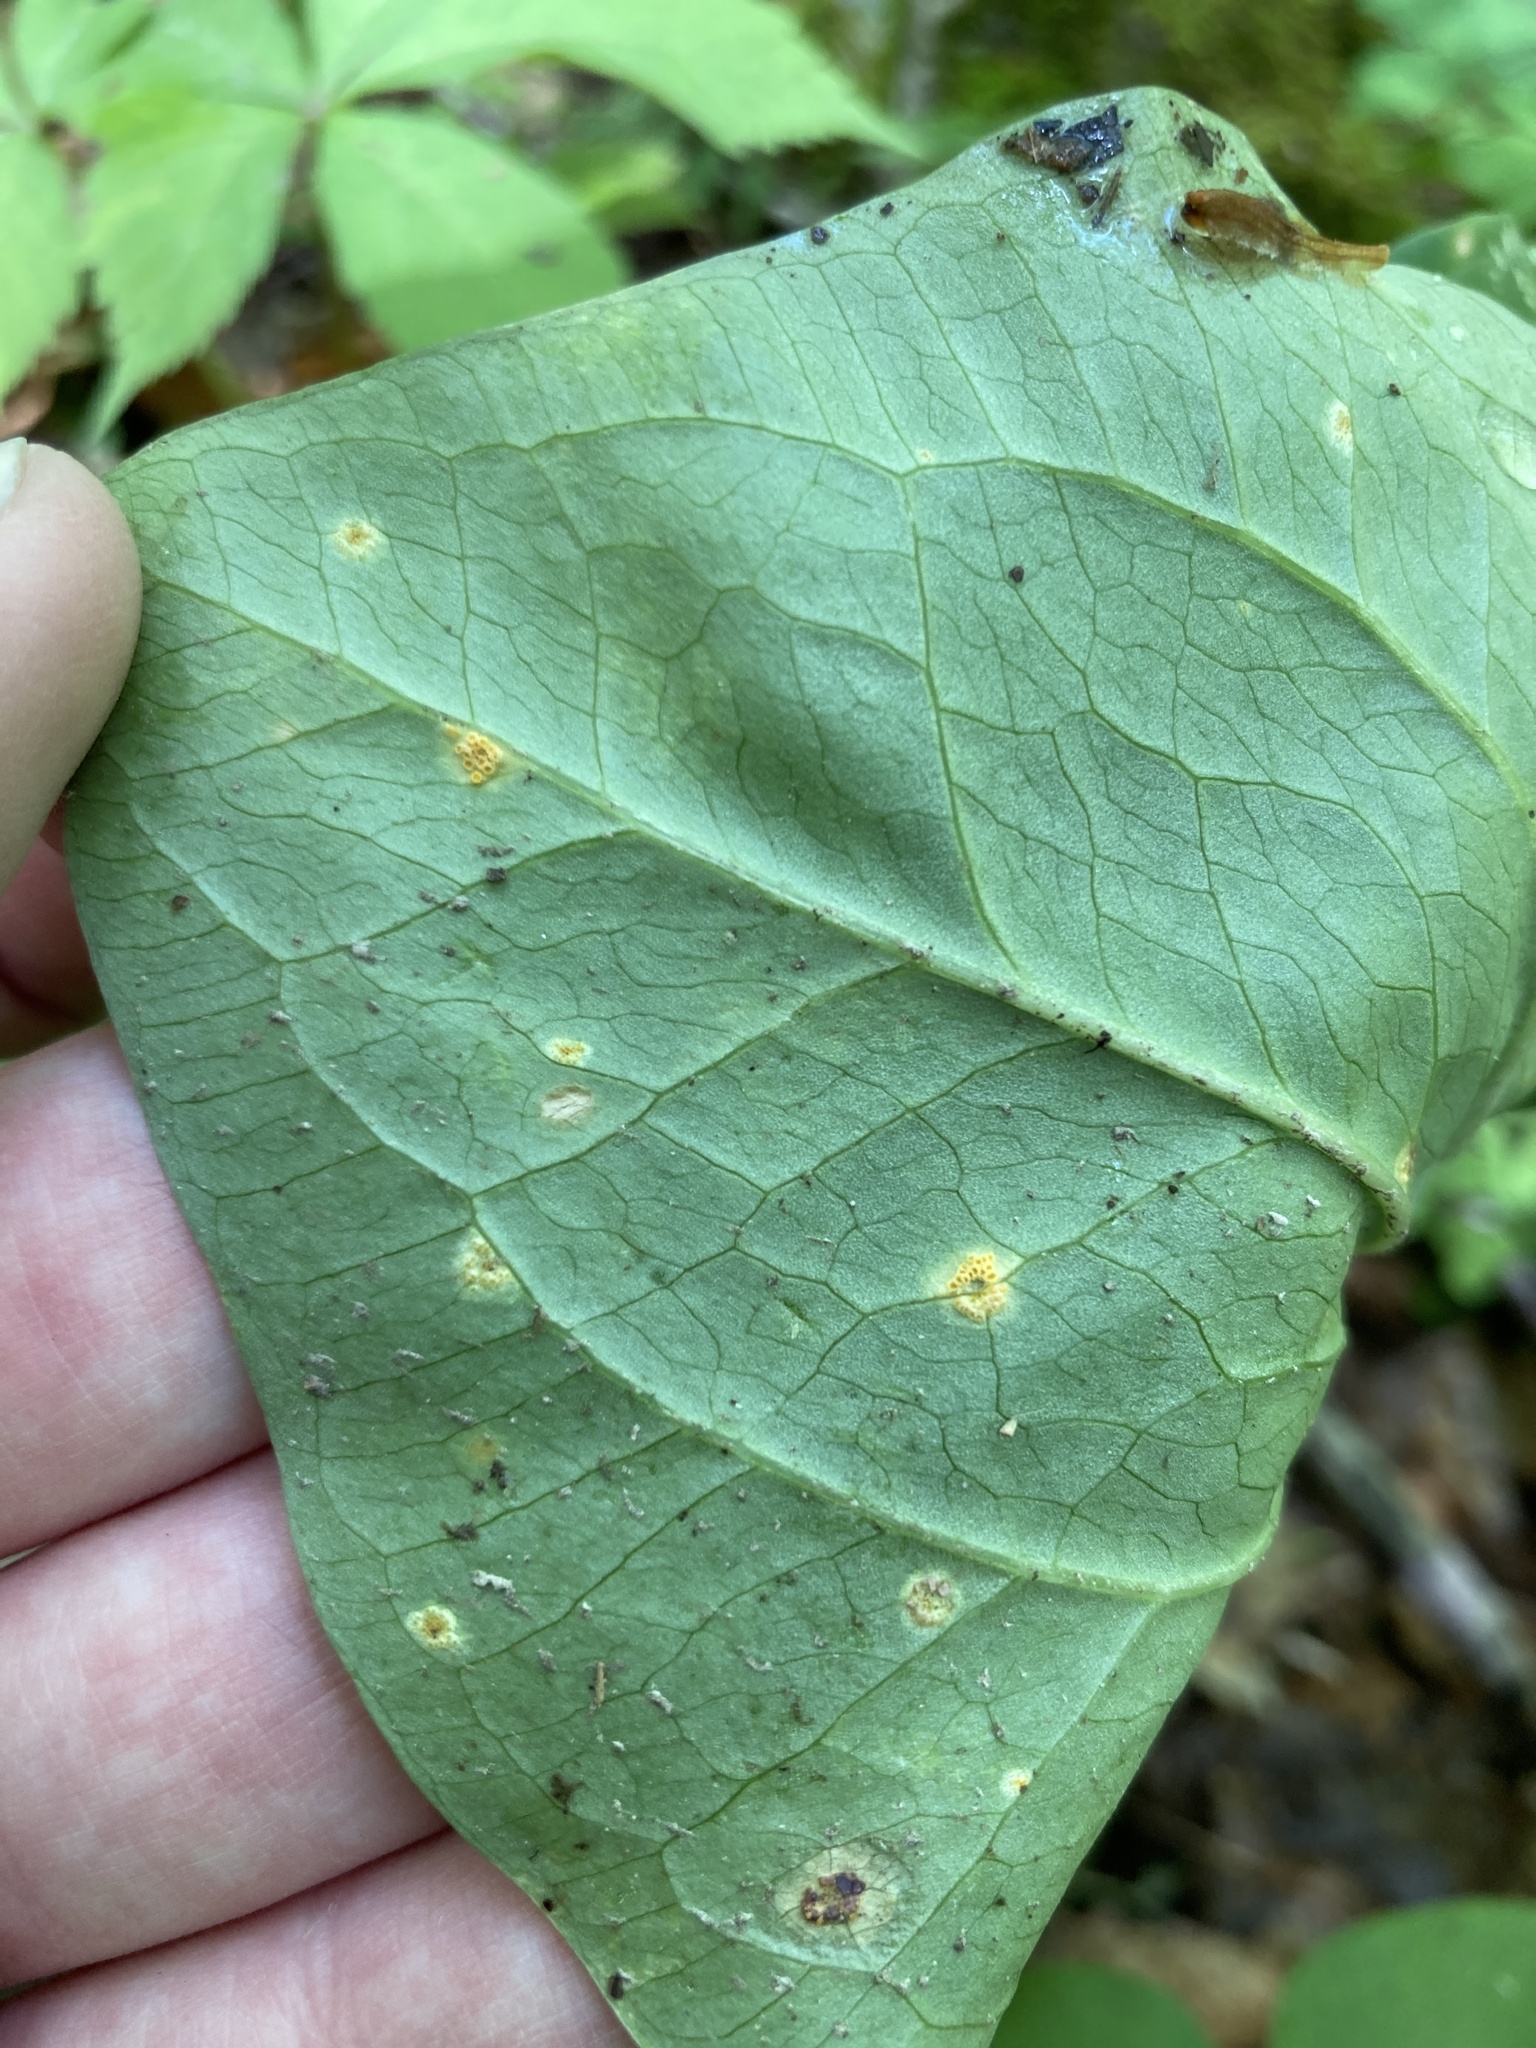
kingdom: Fungi
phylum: Basidiomycota
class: Pucciniomycetes
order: Pucciniales
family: Endoraeciaceae
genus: Endoraecium
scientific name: Endoraecium phyllodiorum
